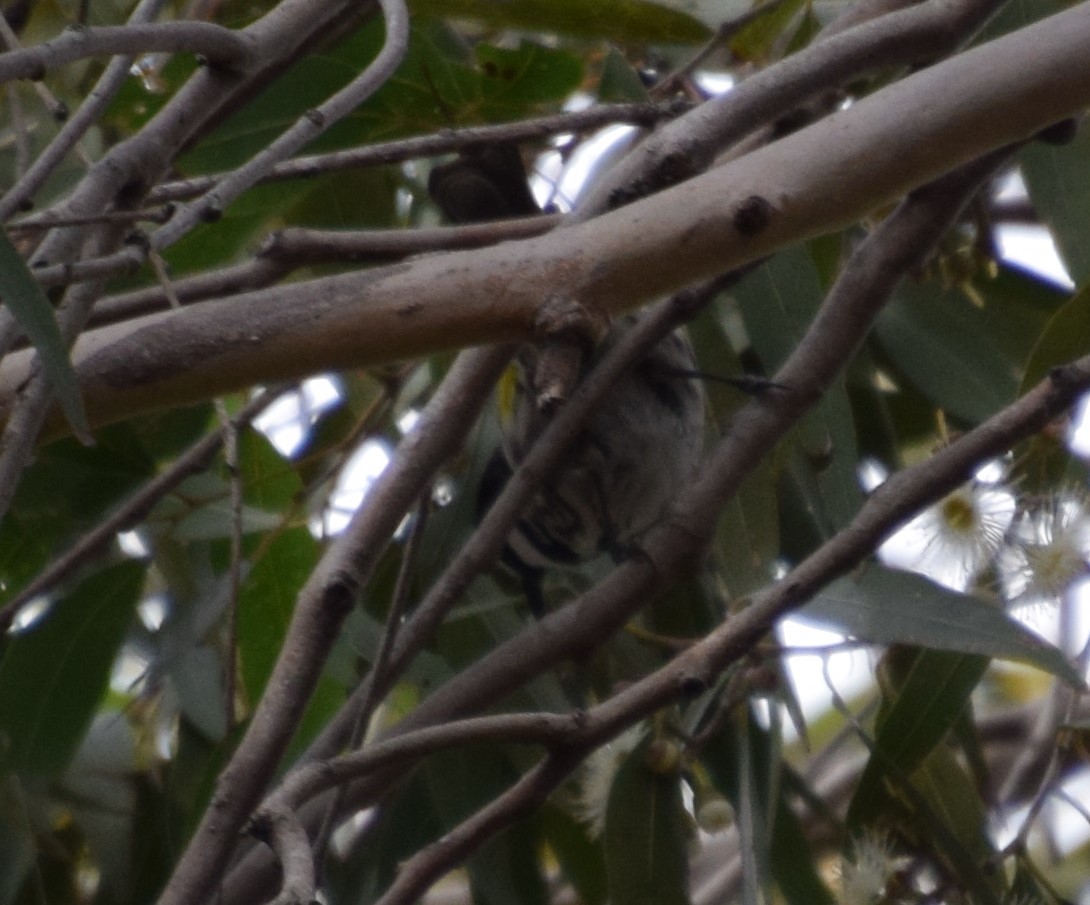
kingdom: Animalia
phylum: Chordata
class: Aves
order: Passeriformes
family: Meliphagidae
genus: Phylidonyris
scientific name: Phylidonyris niger
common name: White-cheeked honeyeater
